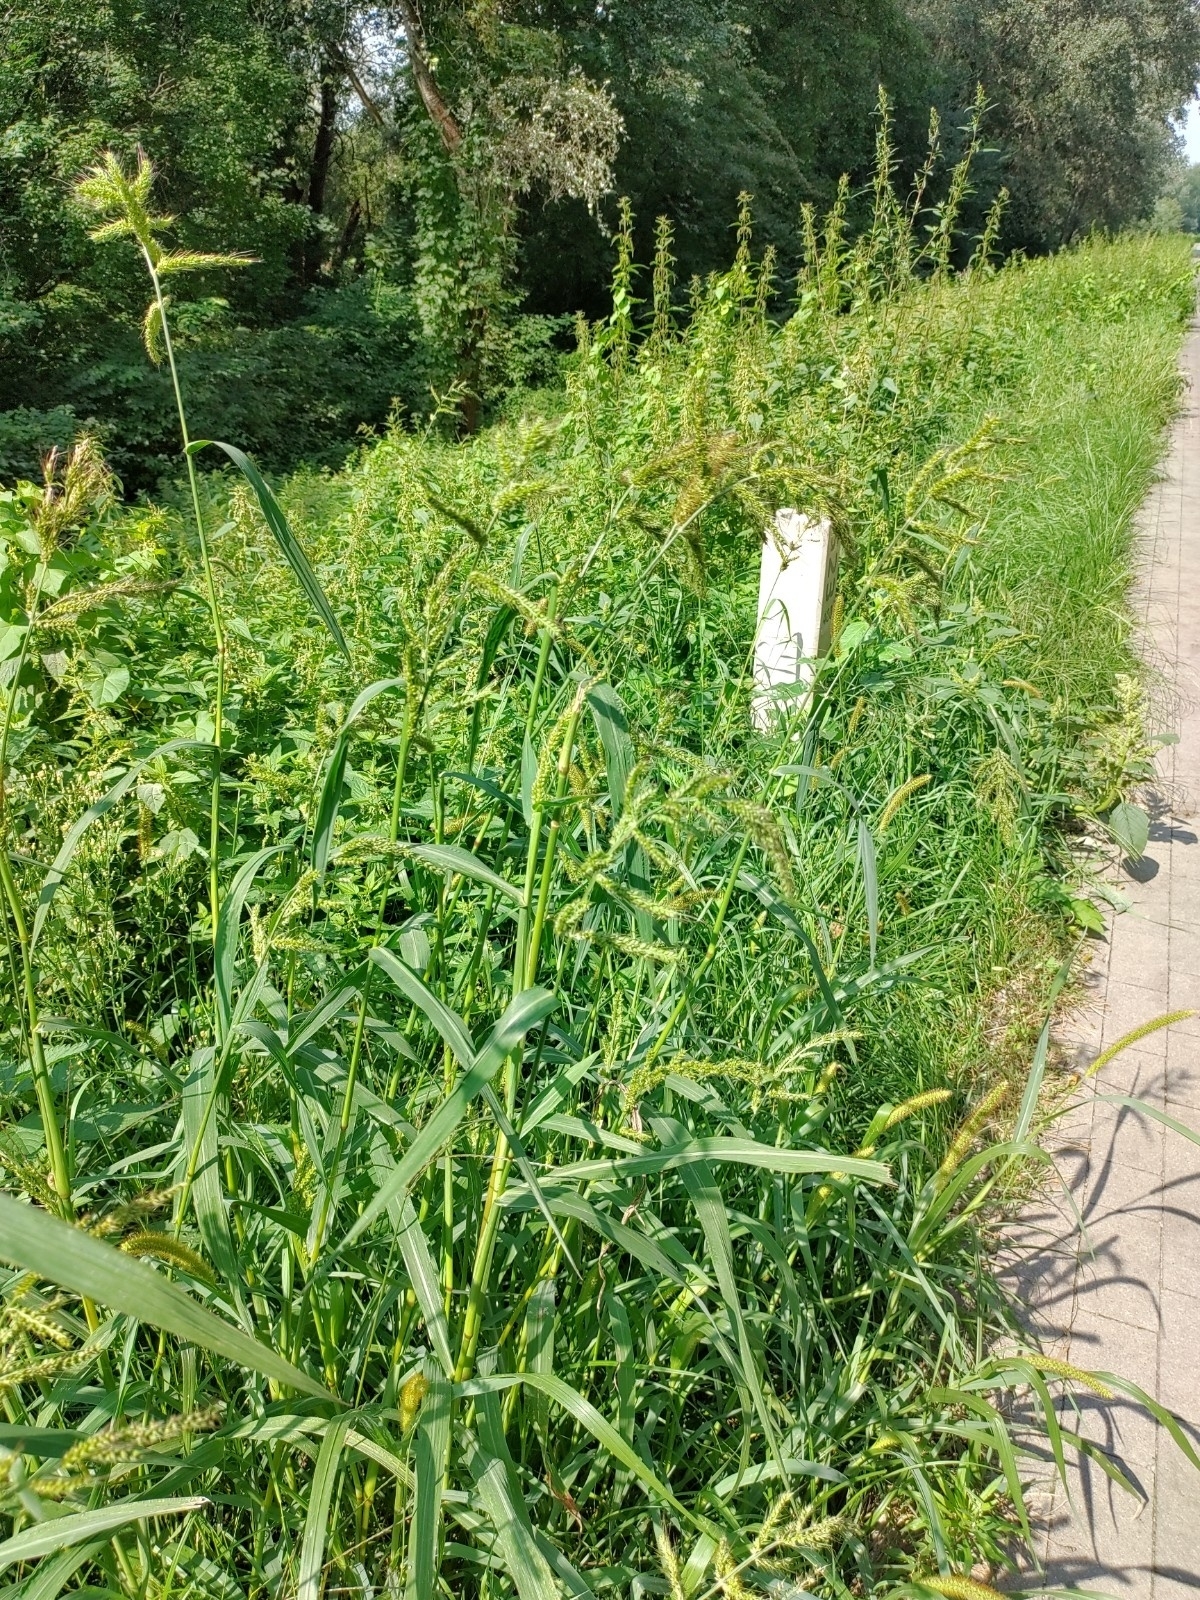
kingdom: Plantae
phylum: Tracheophyta
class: Liliopsida
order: Poales
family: Poaceae
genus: Echinochloa
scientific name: Echinochloa crus-galli
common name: Cockspur
